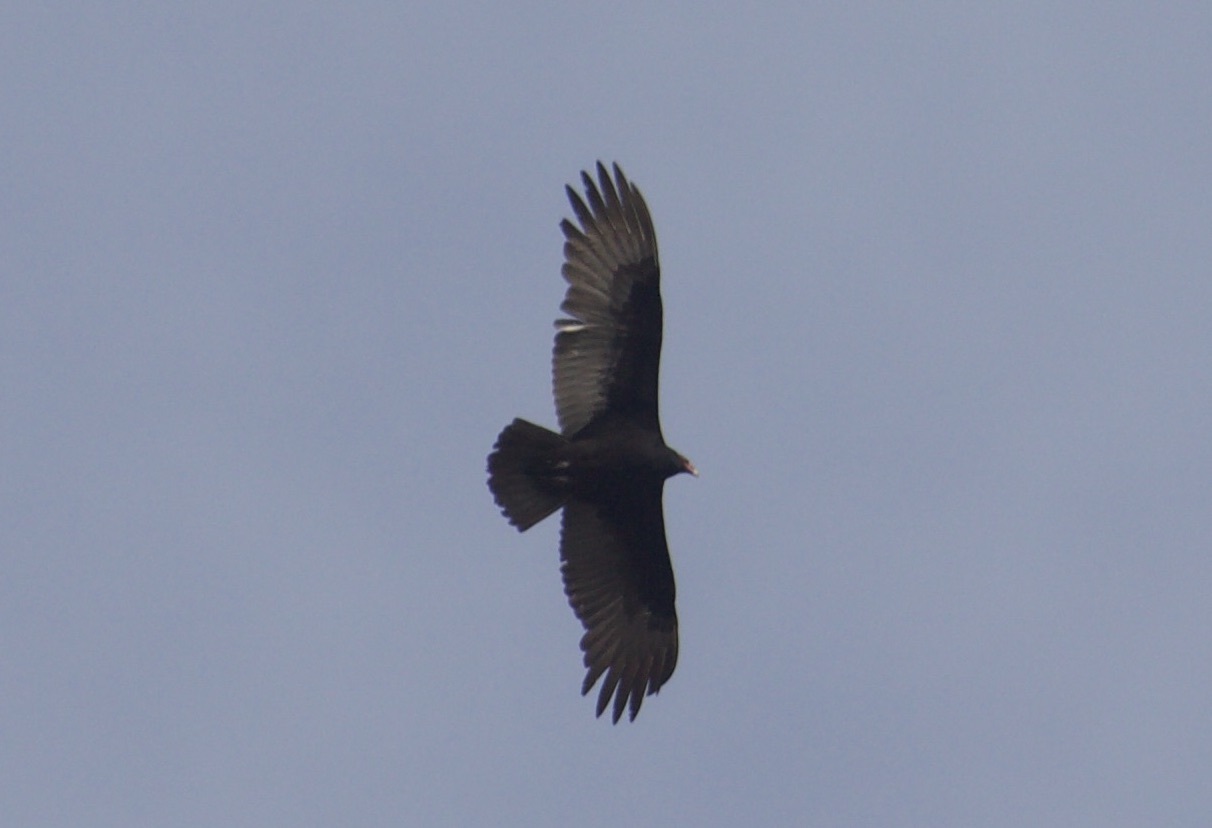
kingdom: Animalia
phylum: Chordata
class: Aves
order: Accipitriformes
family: Cathartidae
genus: Cathartes
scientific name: Cathartes aura
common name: Turkey vulture
